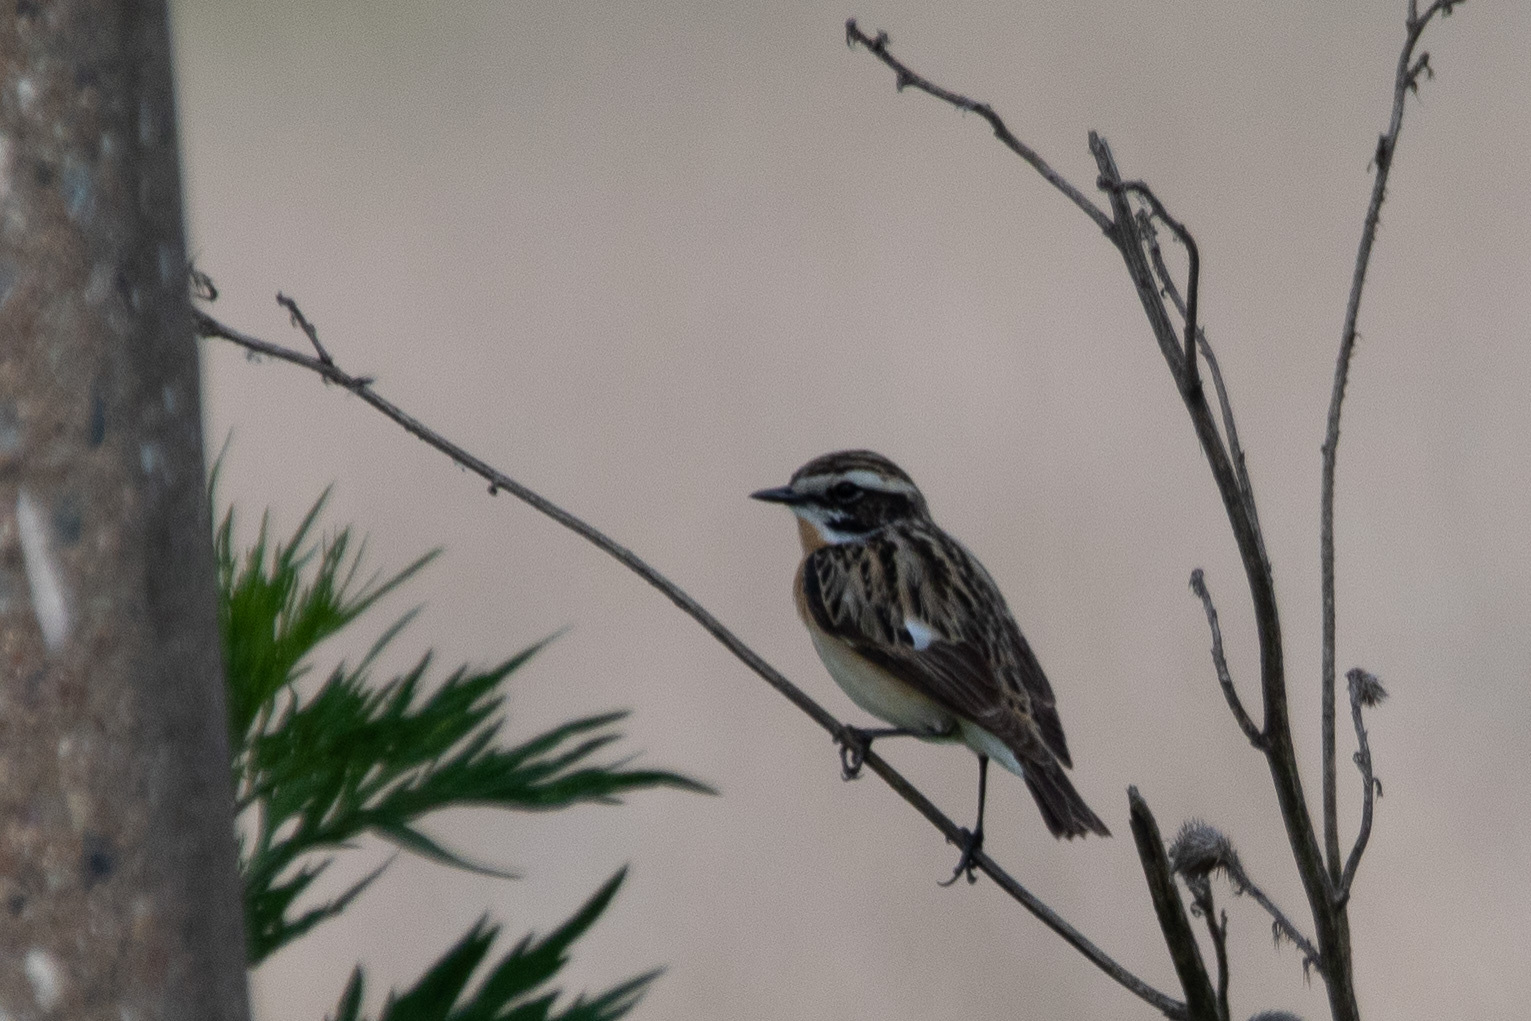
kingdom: Animalia
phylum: Chordata
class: Aves
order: Passeriformes
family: Muscicapidae
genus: Saxicola
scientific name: Saxicola rubetra
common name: Whinchat
